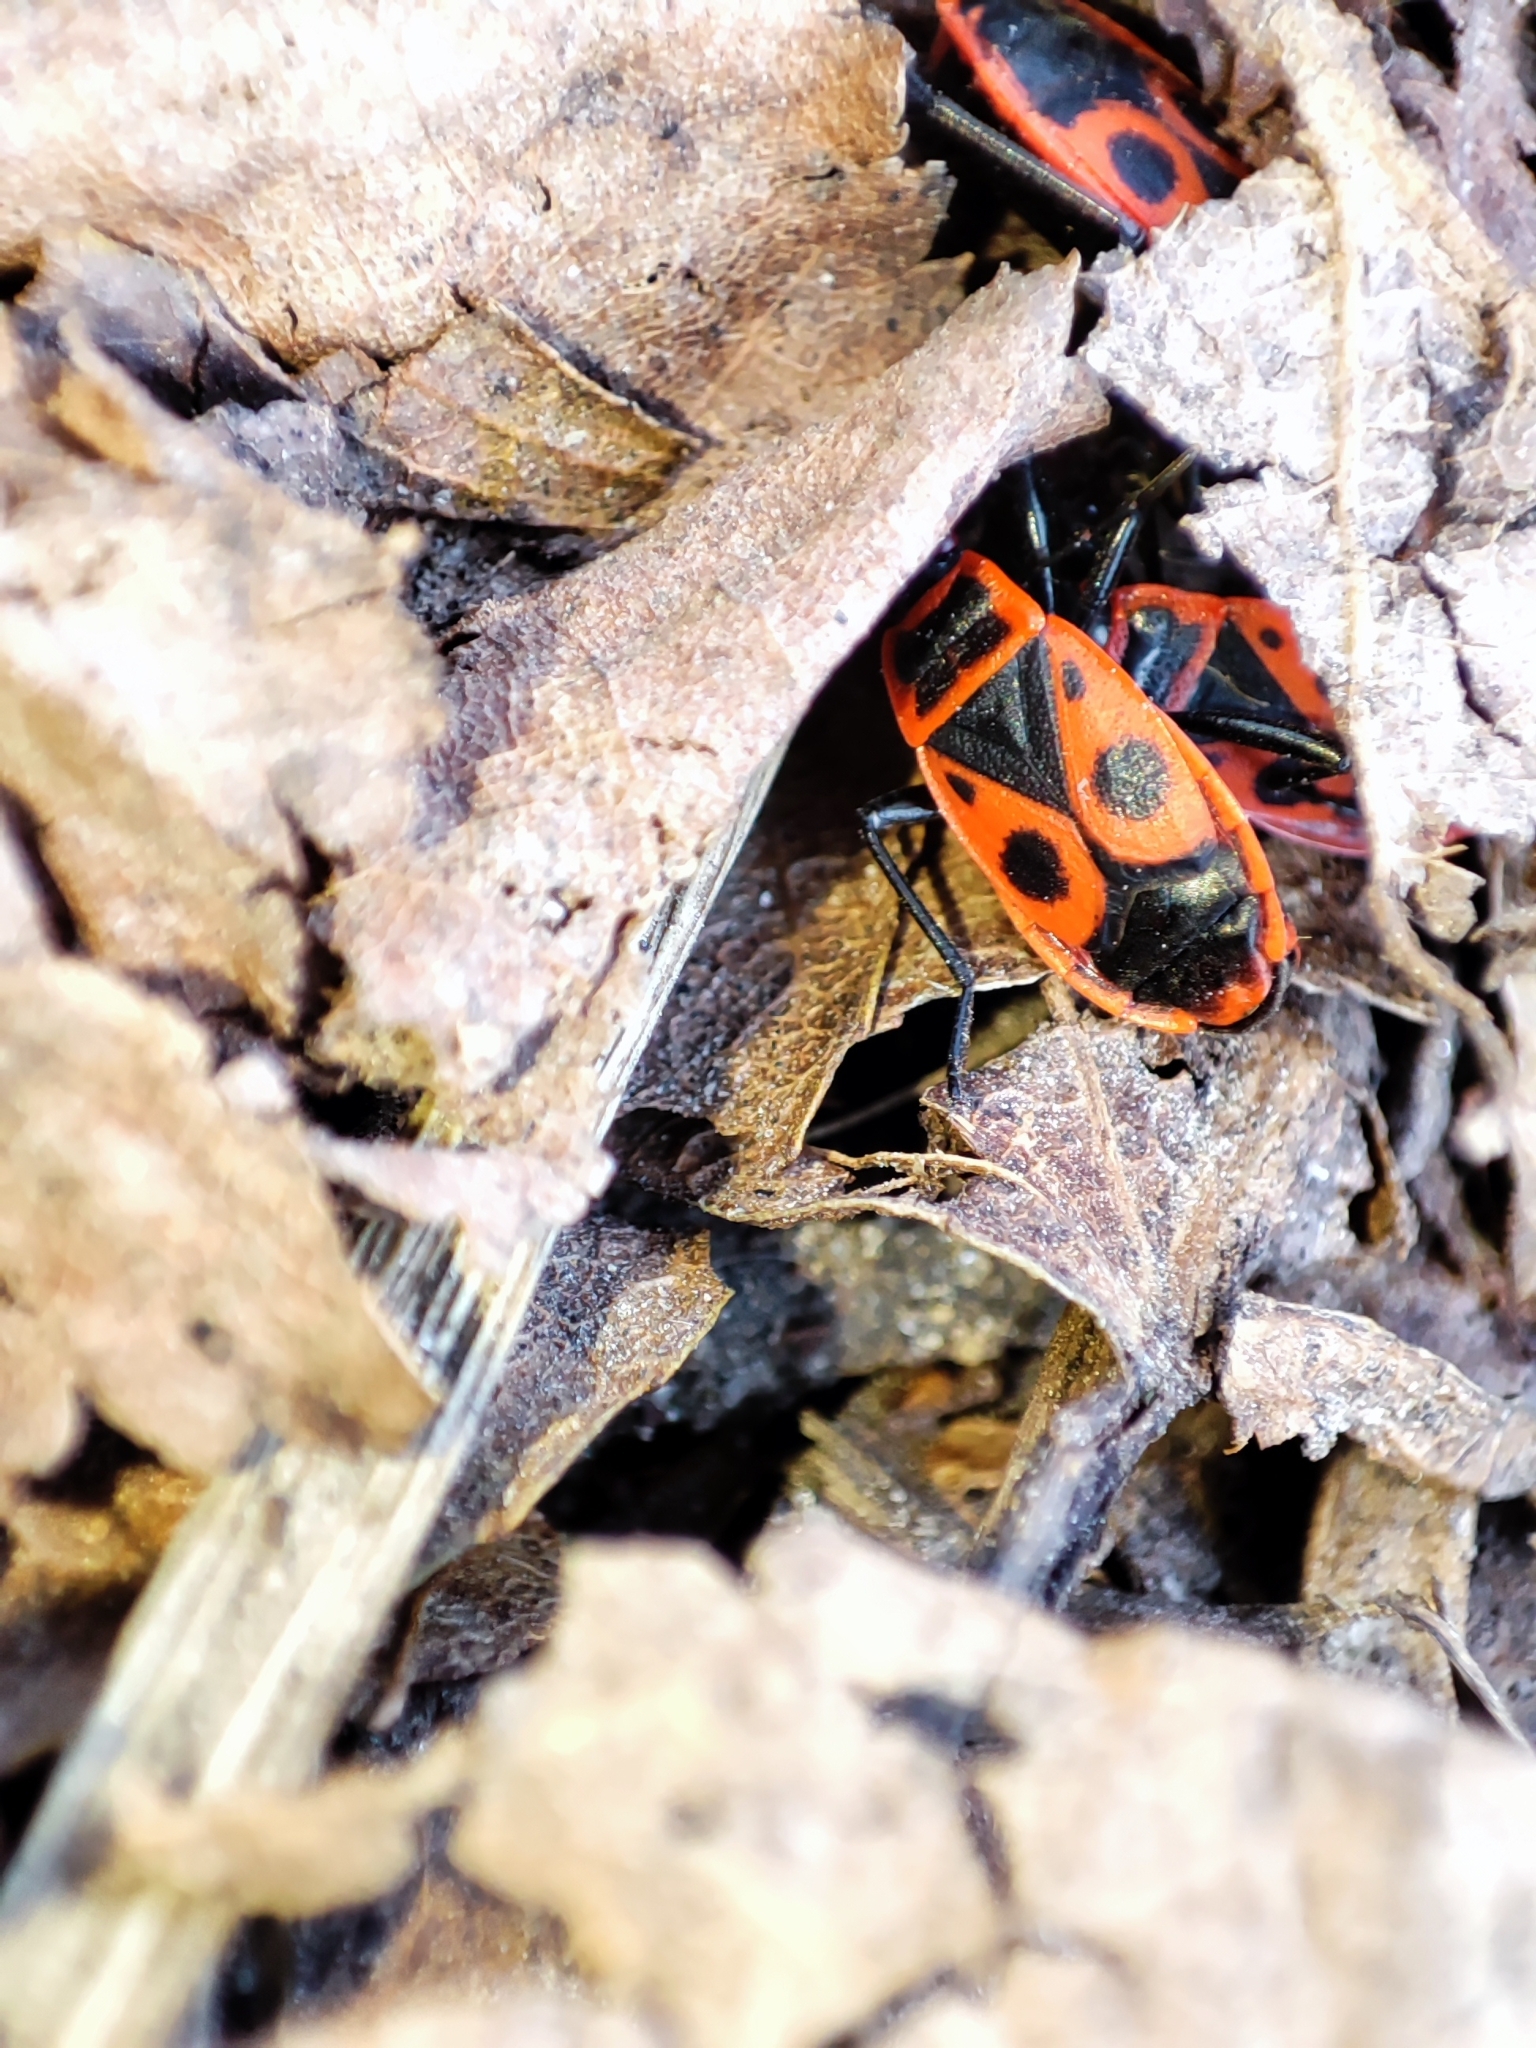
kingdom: Animalia
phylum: Arthropoda
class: Insecta
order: Hemiptera
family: Pyrrhocoridae
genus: Pyrrhocoris
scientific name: Pyrrhocoris apterus
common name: Firebug
